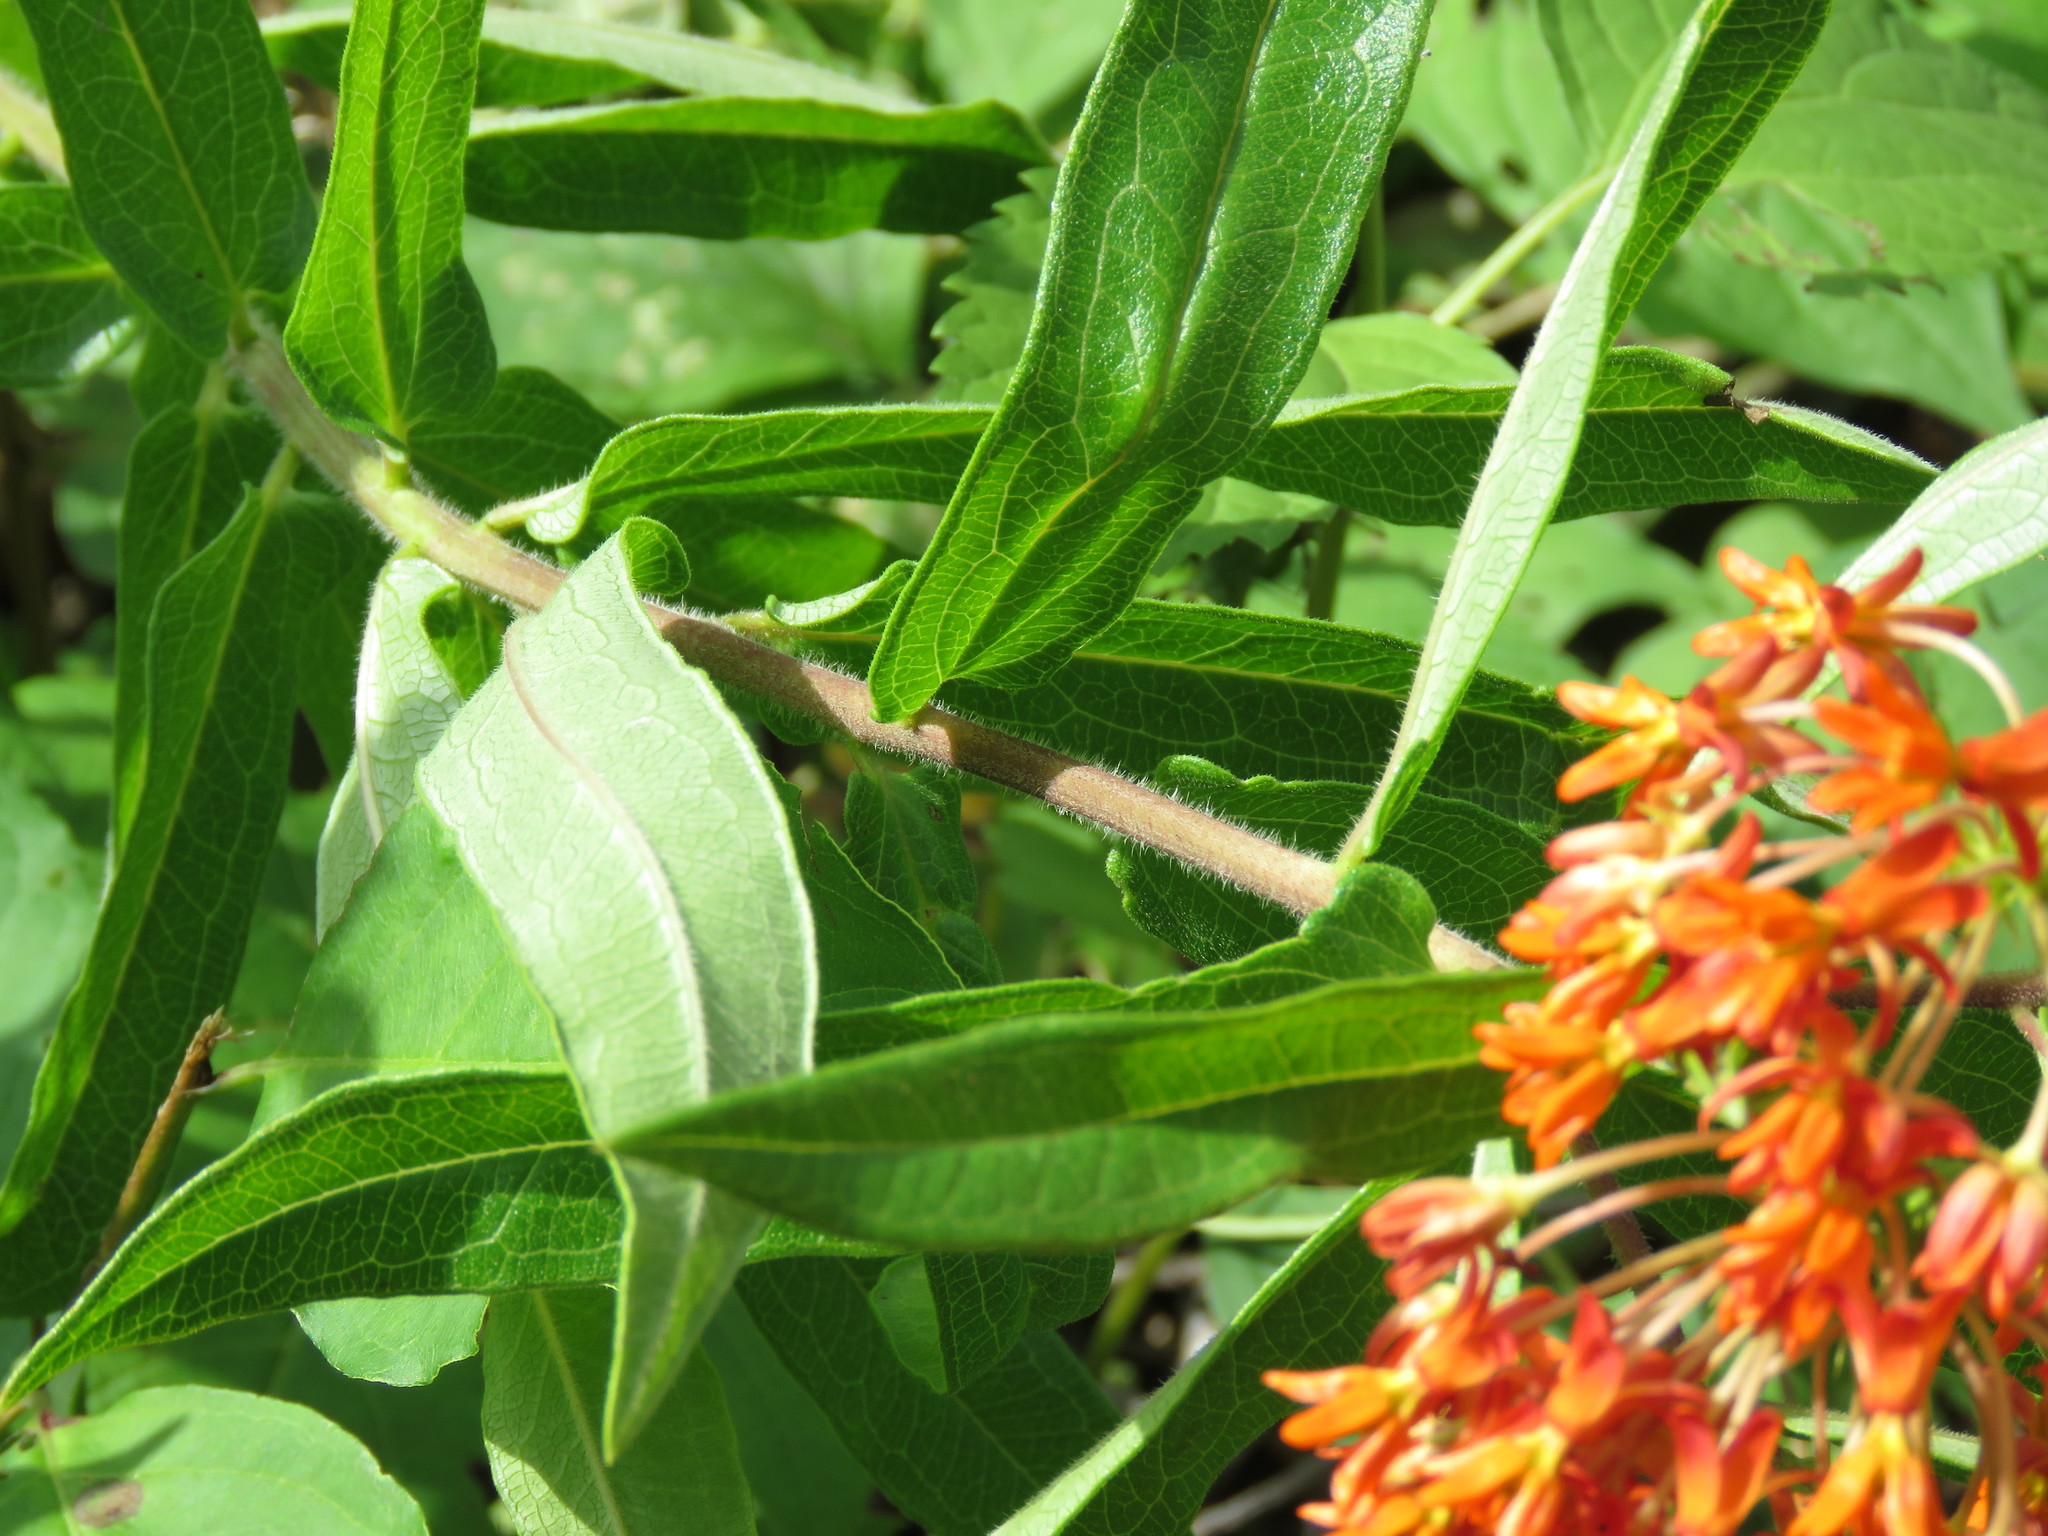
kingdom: Plantae
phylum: Tracheophyta
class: Magnoliopsida
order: Gentianales
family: Apocynaceae
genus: Asclepias
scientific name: Asclepias tuberosa
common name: Butterfly milkweed
